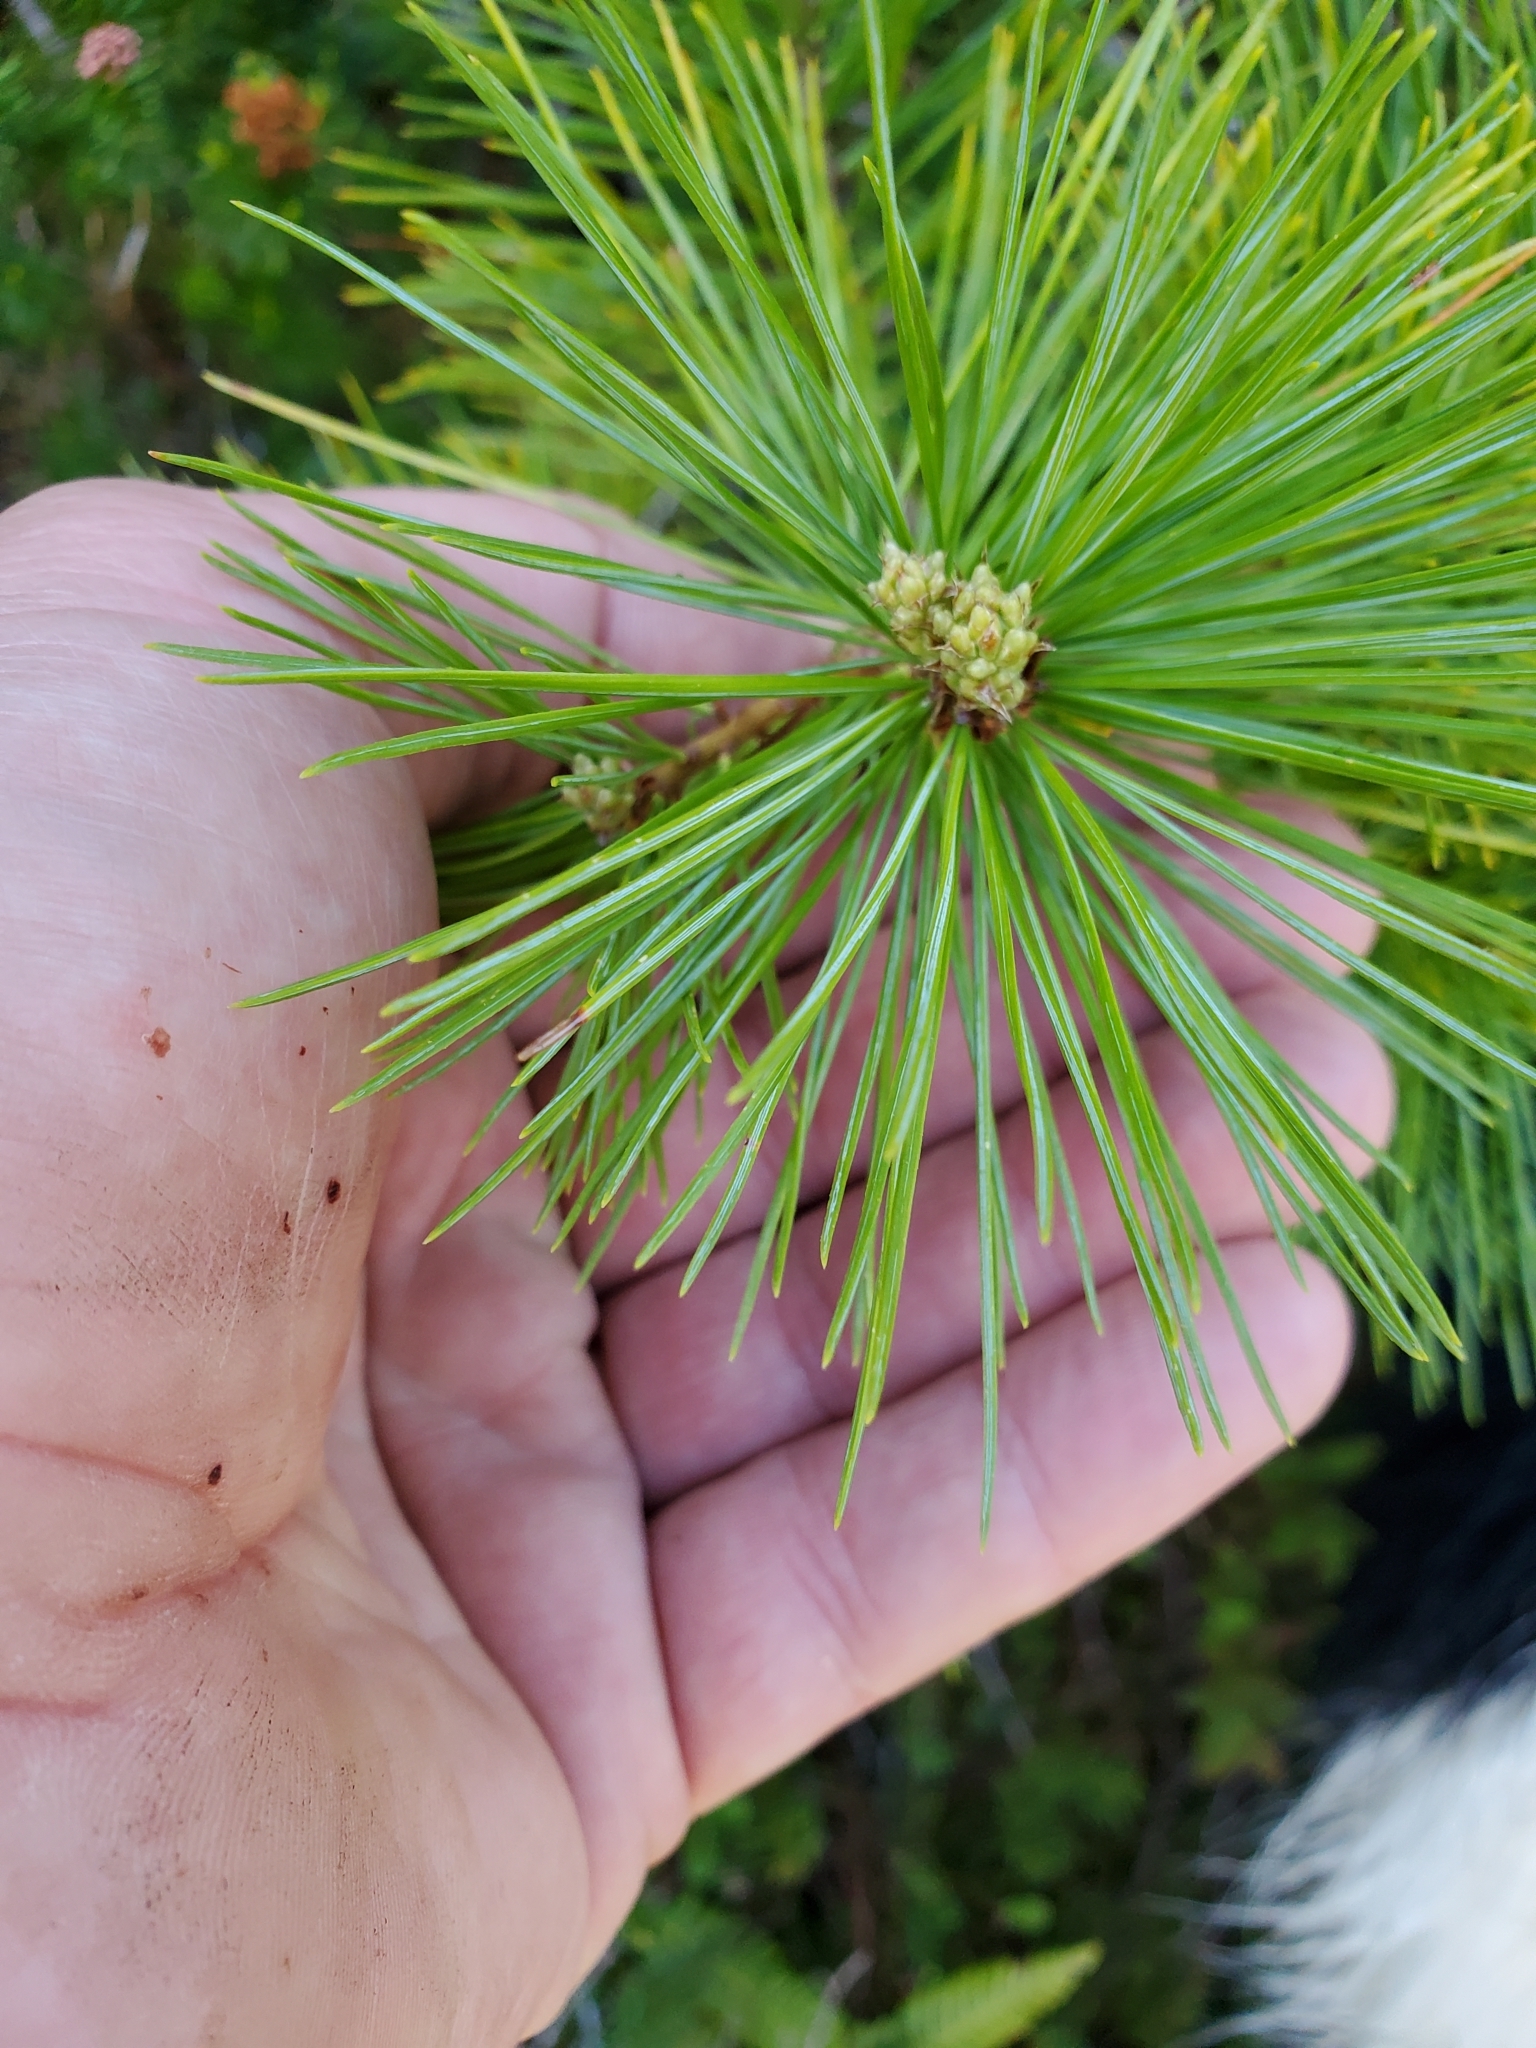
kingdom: Plantae
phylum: Tracheophyta
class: Pinopsida
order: Pinales
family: Pinaceae
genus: Pinus
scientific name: Pinus monticola
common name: Western white pine
